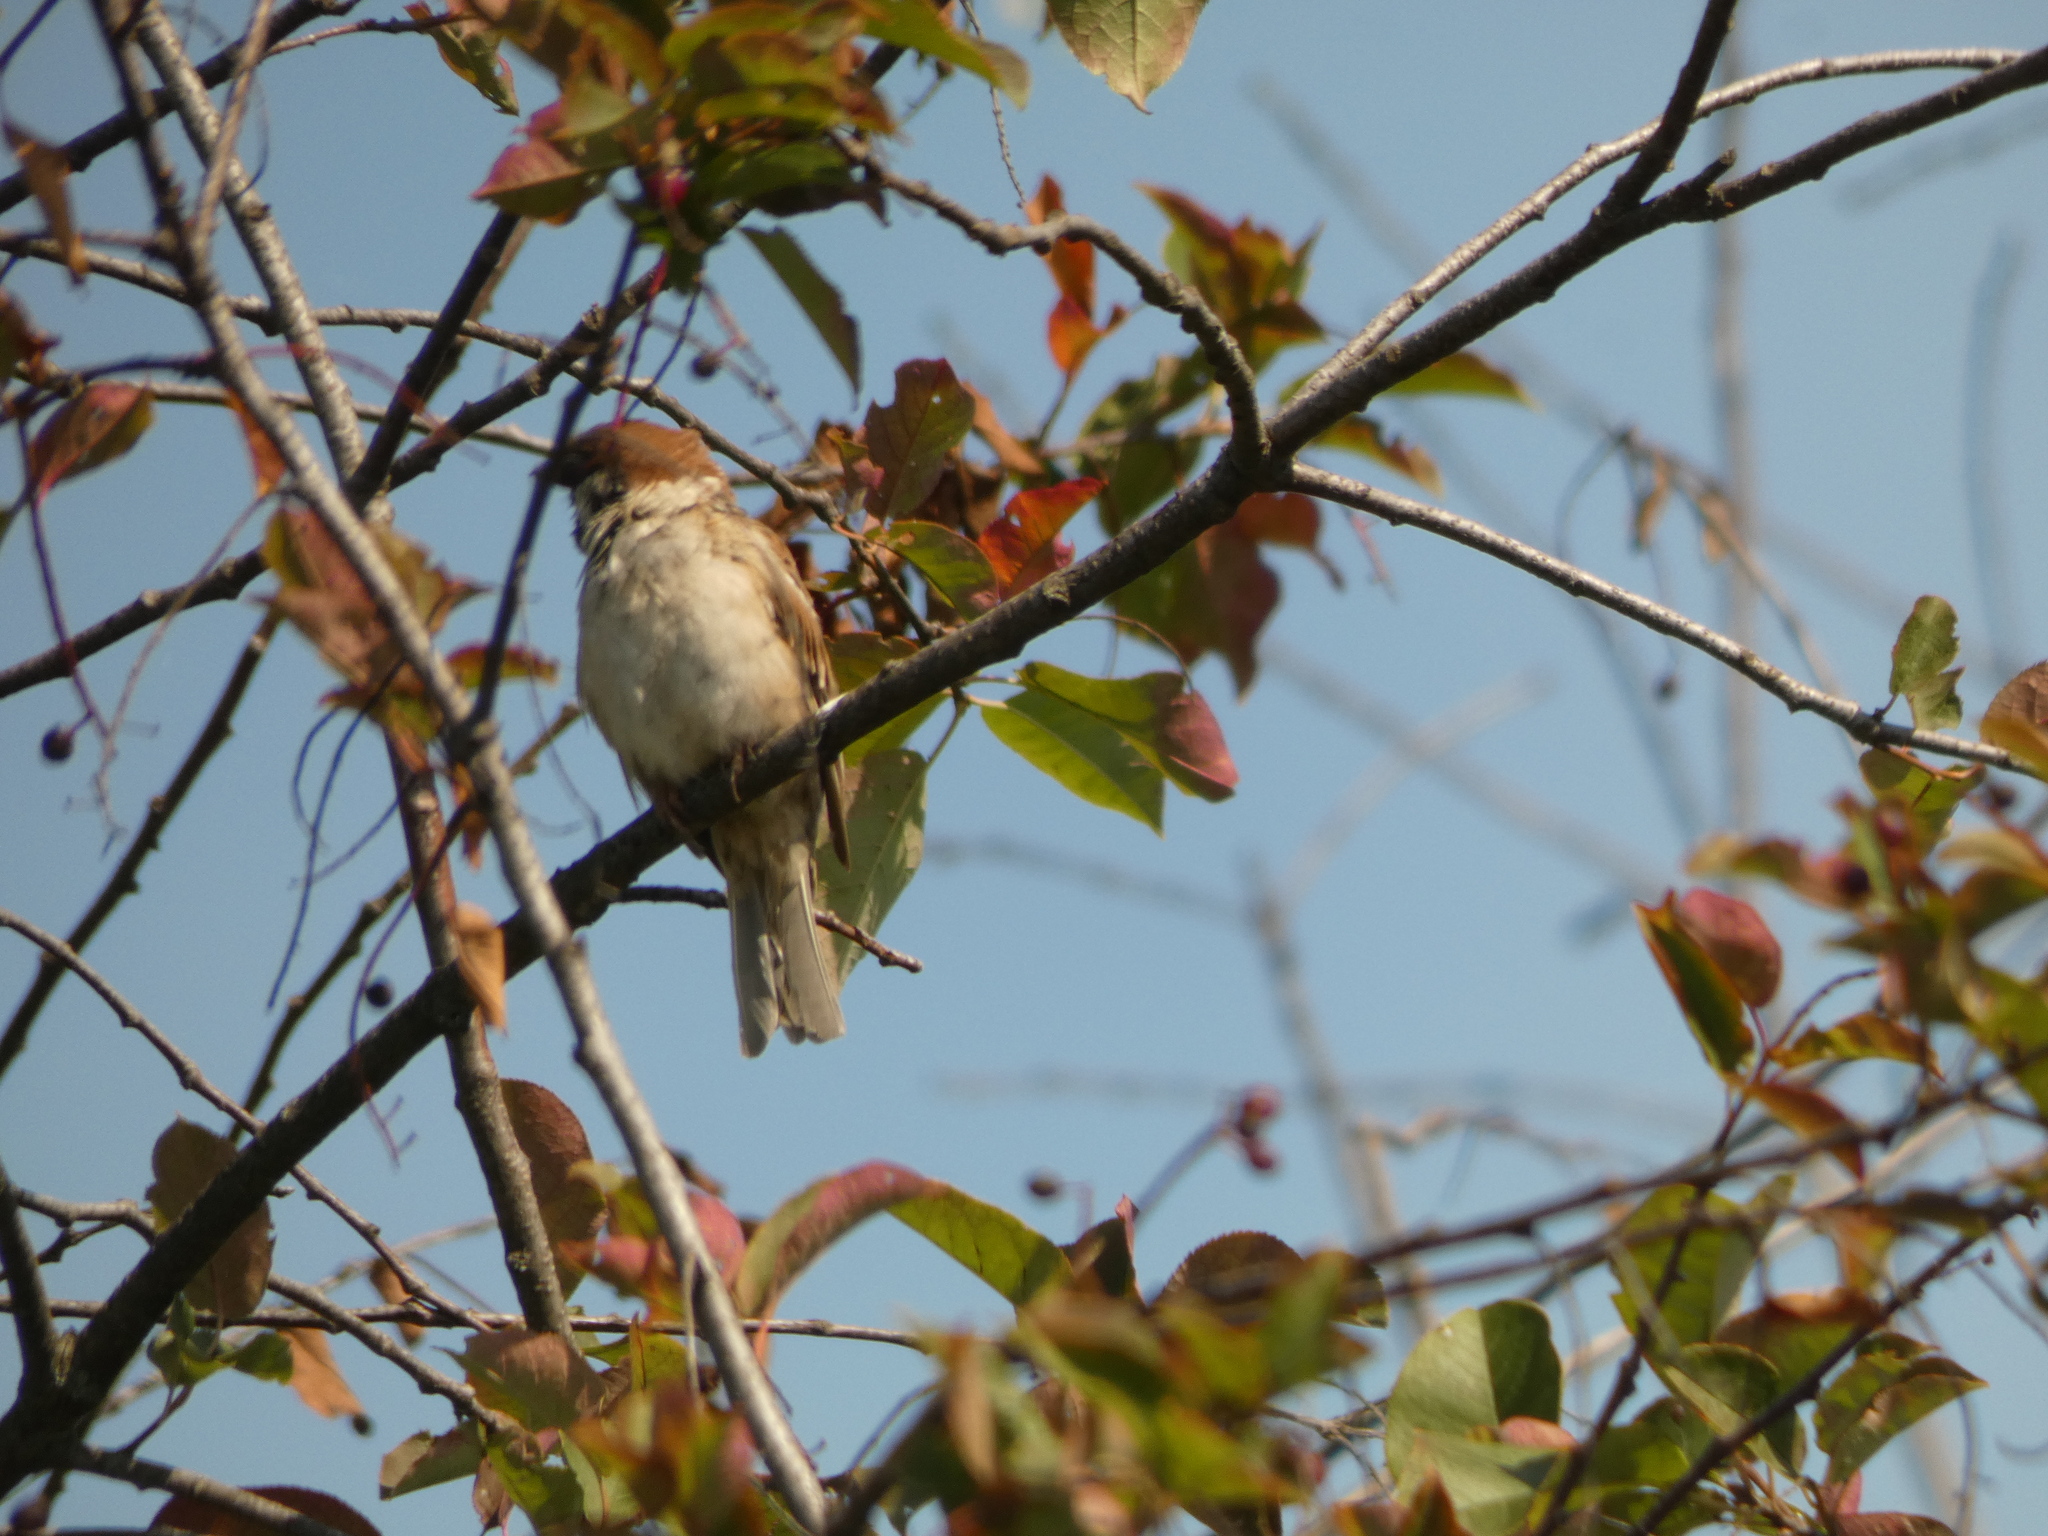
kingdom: Animalia
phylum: Chordata
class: Aves
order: Passeriformes
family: Passeridae
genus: Passer
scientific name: Passer montanus
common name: Eurasian tree sparrow
